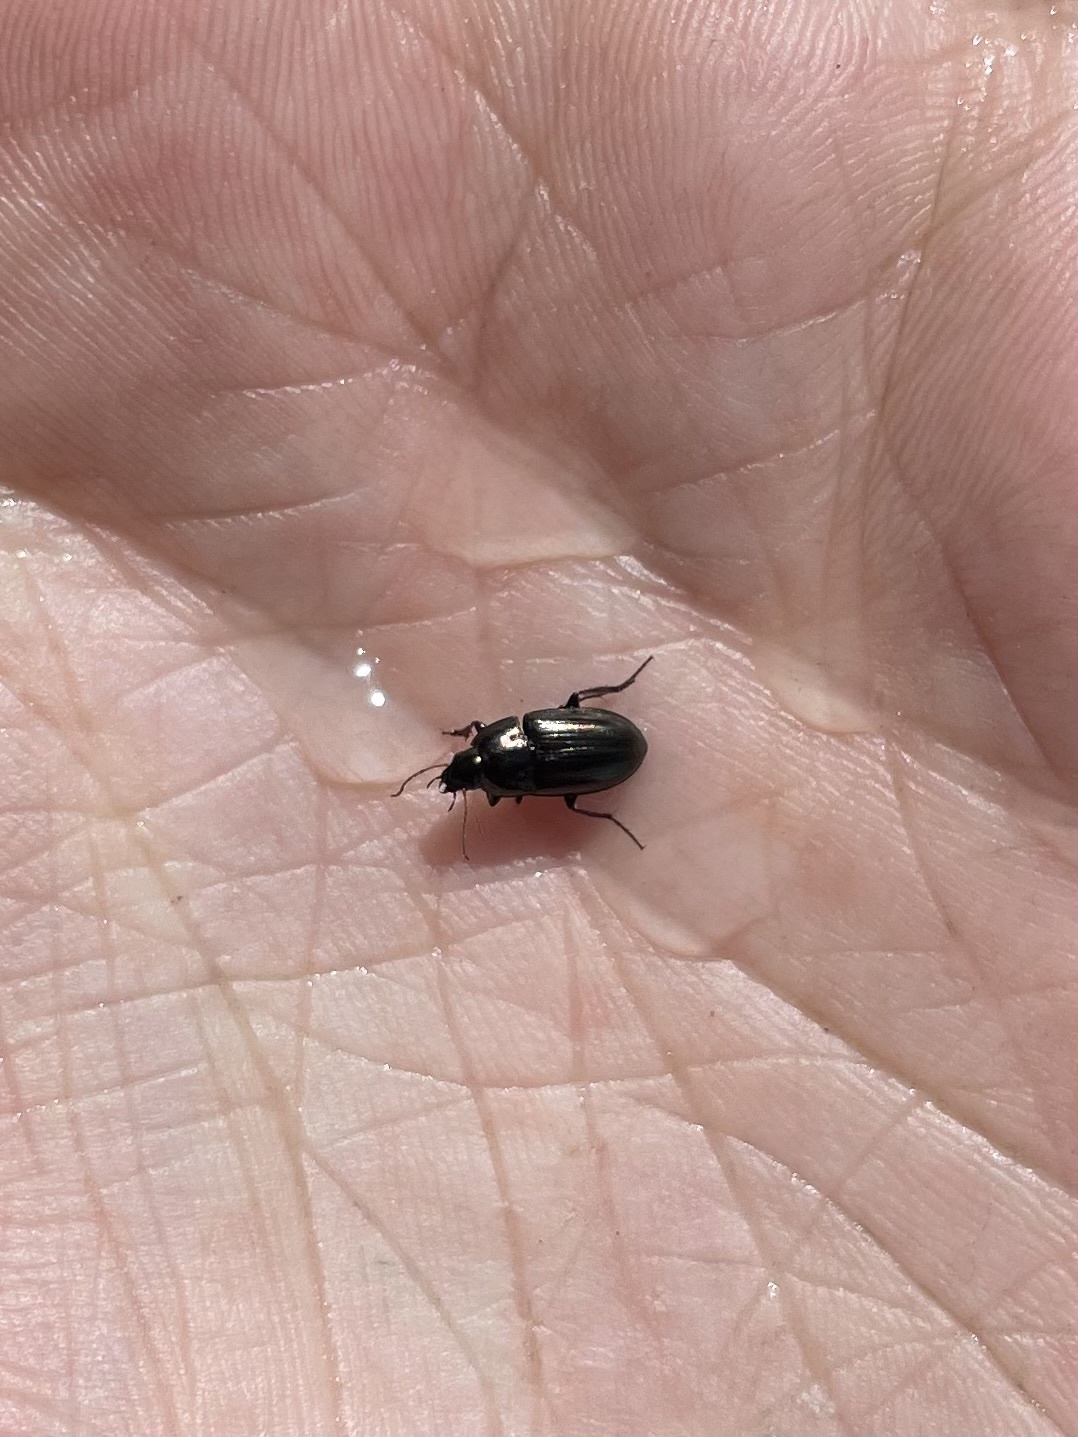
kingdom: Animalia
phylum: Arthropoda
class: Insecta
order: Coleoptera
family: Carabidae
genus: Amara
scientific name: Amara
